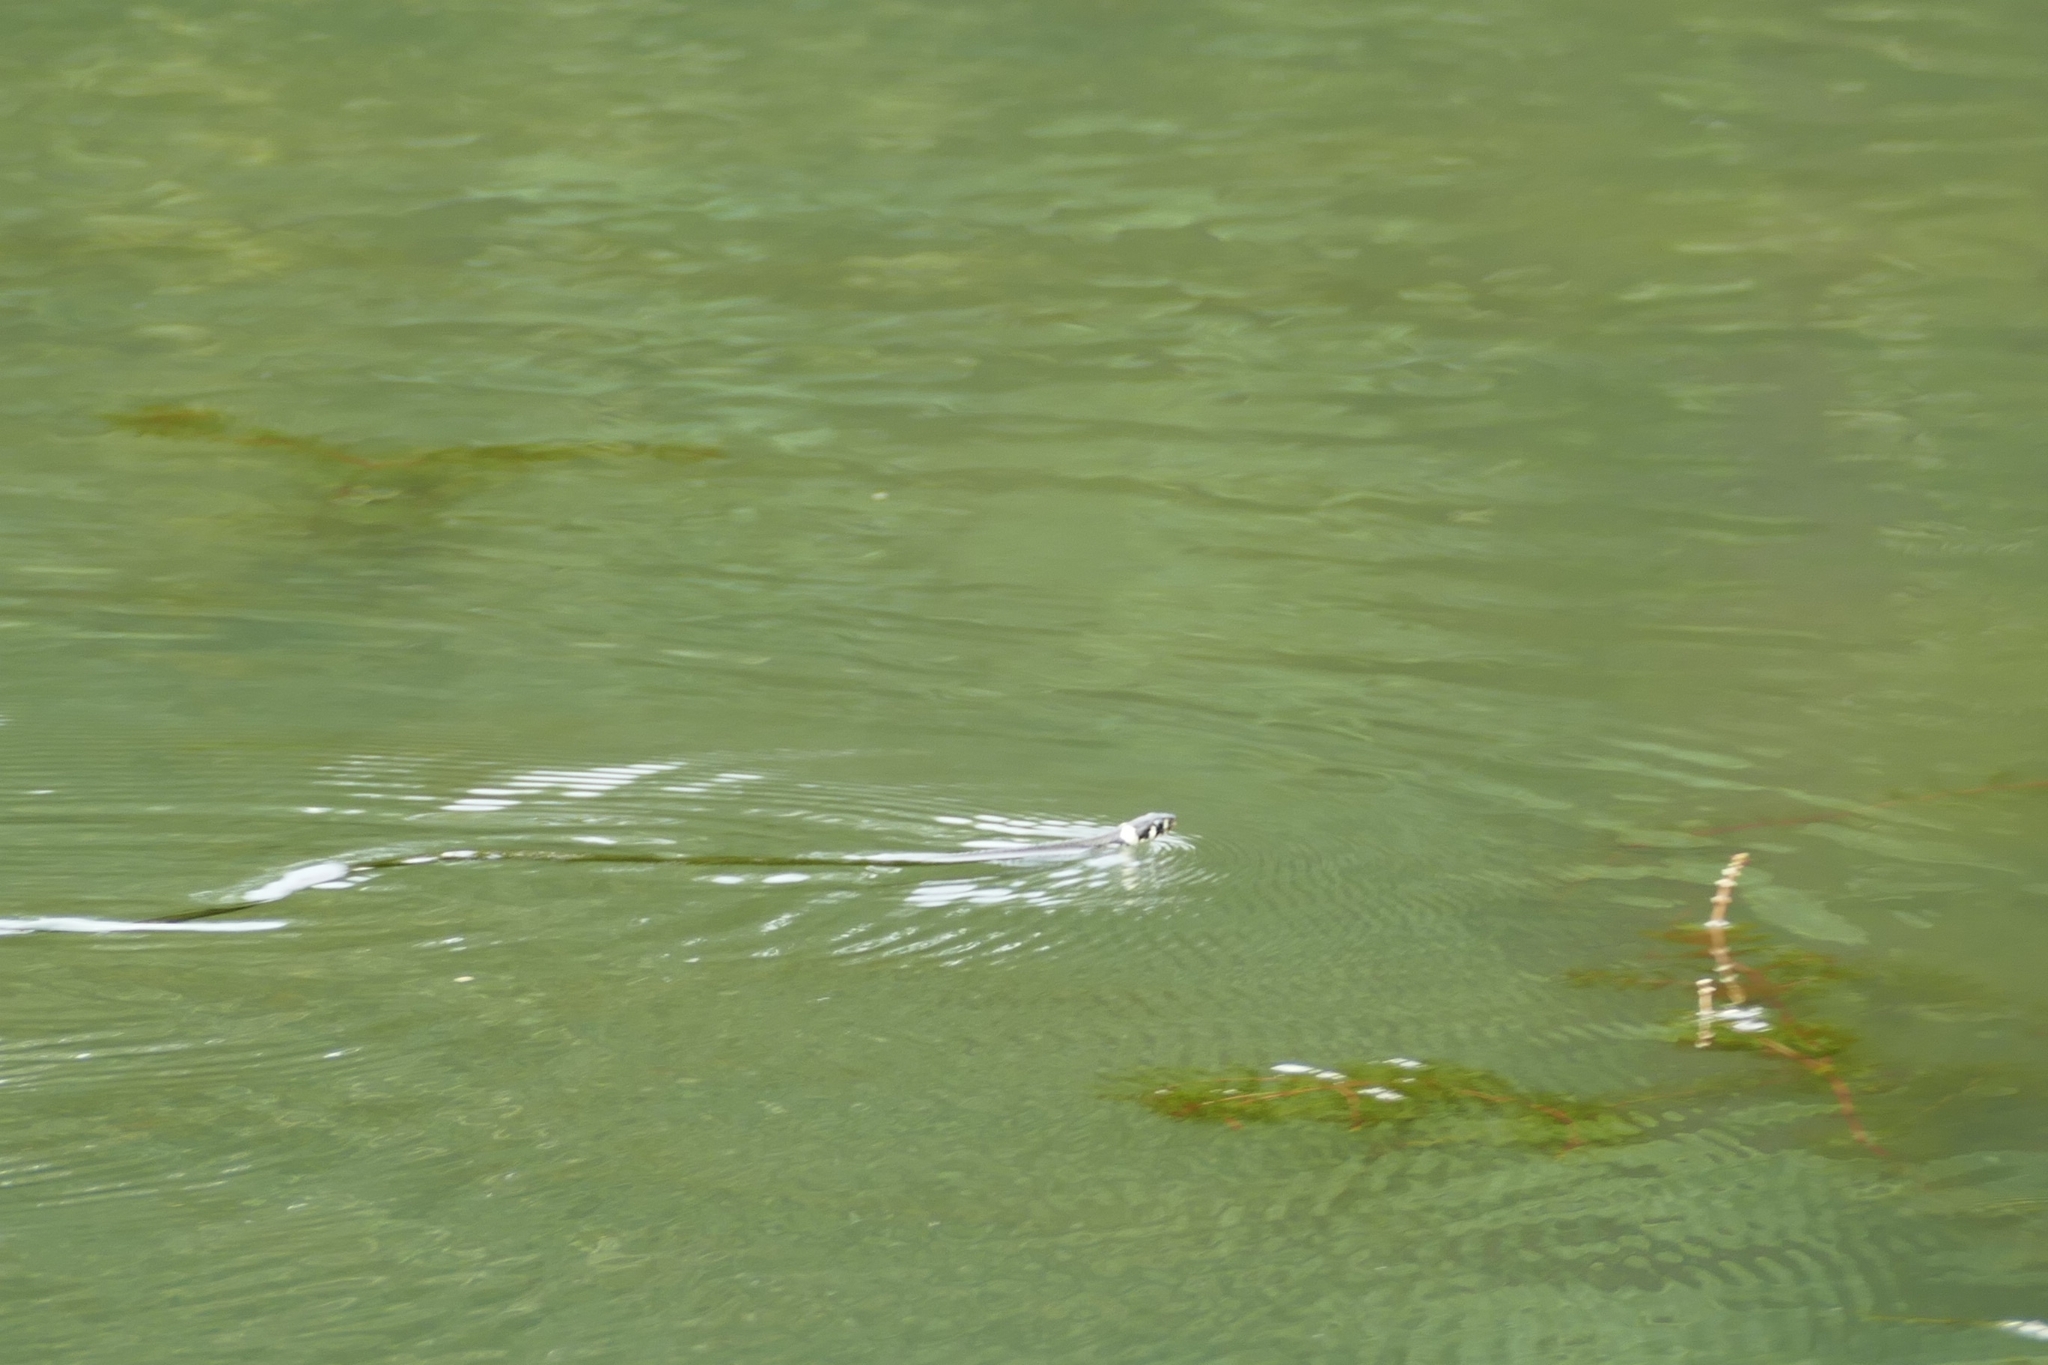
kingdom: Animalia
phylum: Chordata
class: Squamata
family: Colubridae
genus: Natrix
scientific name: Natrix natrix
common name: Grass snake
